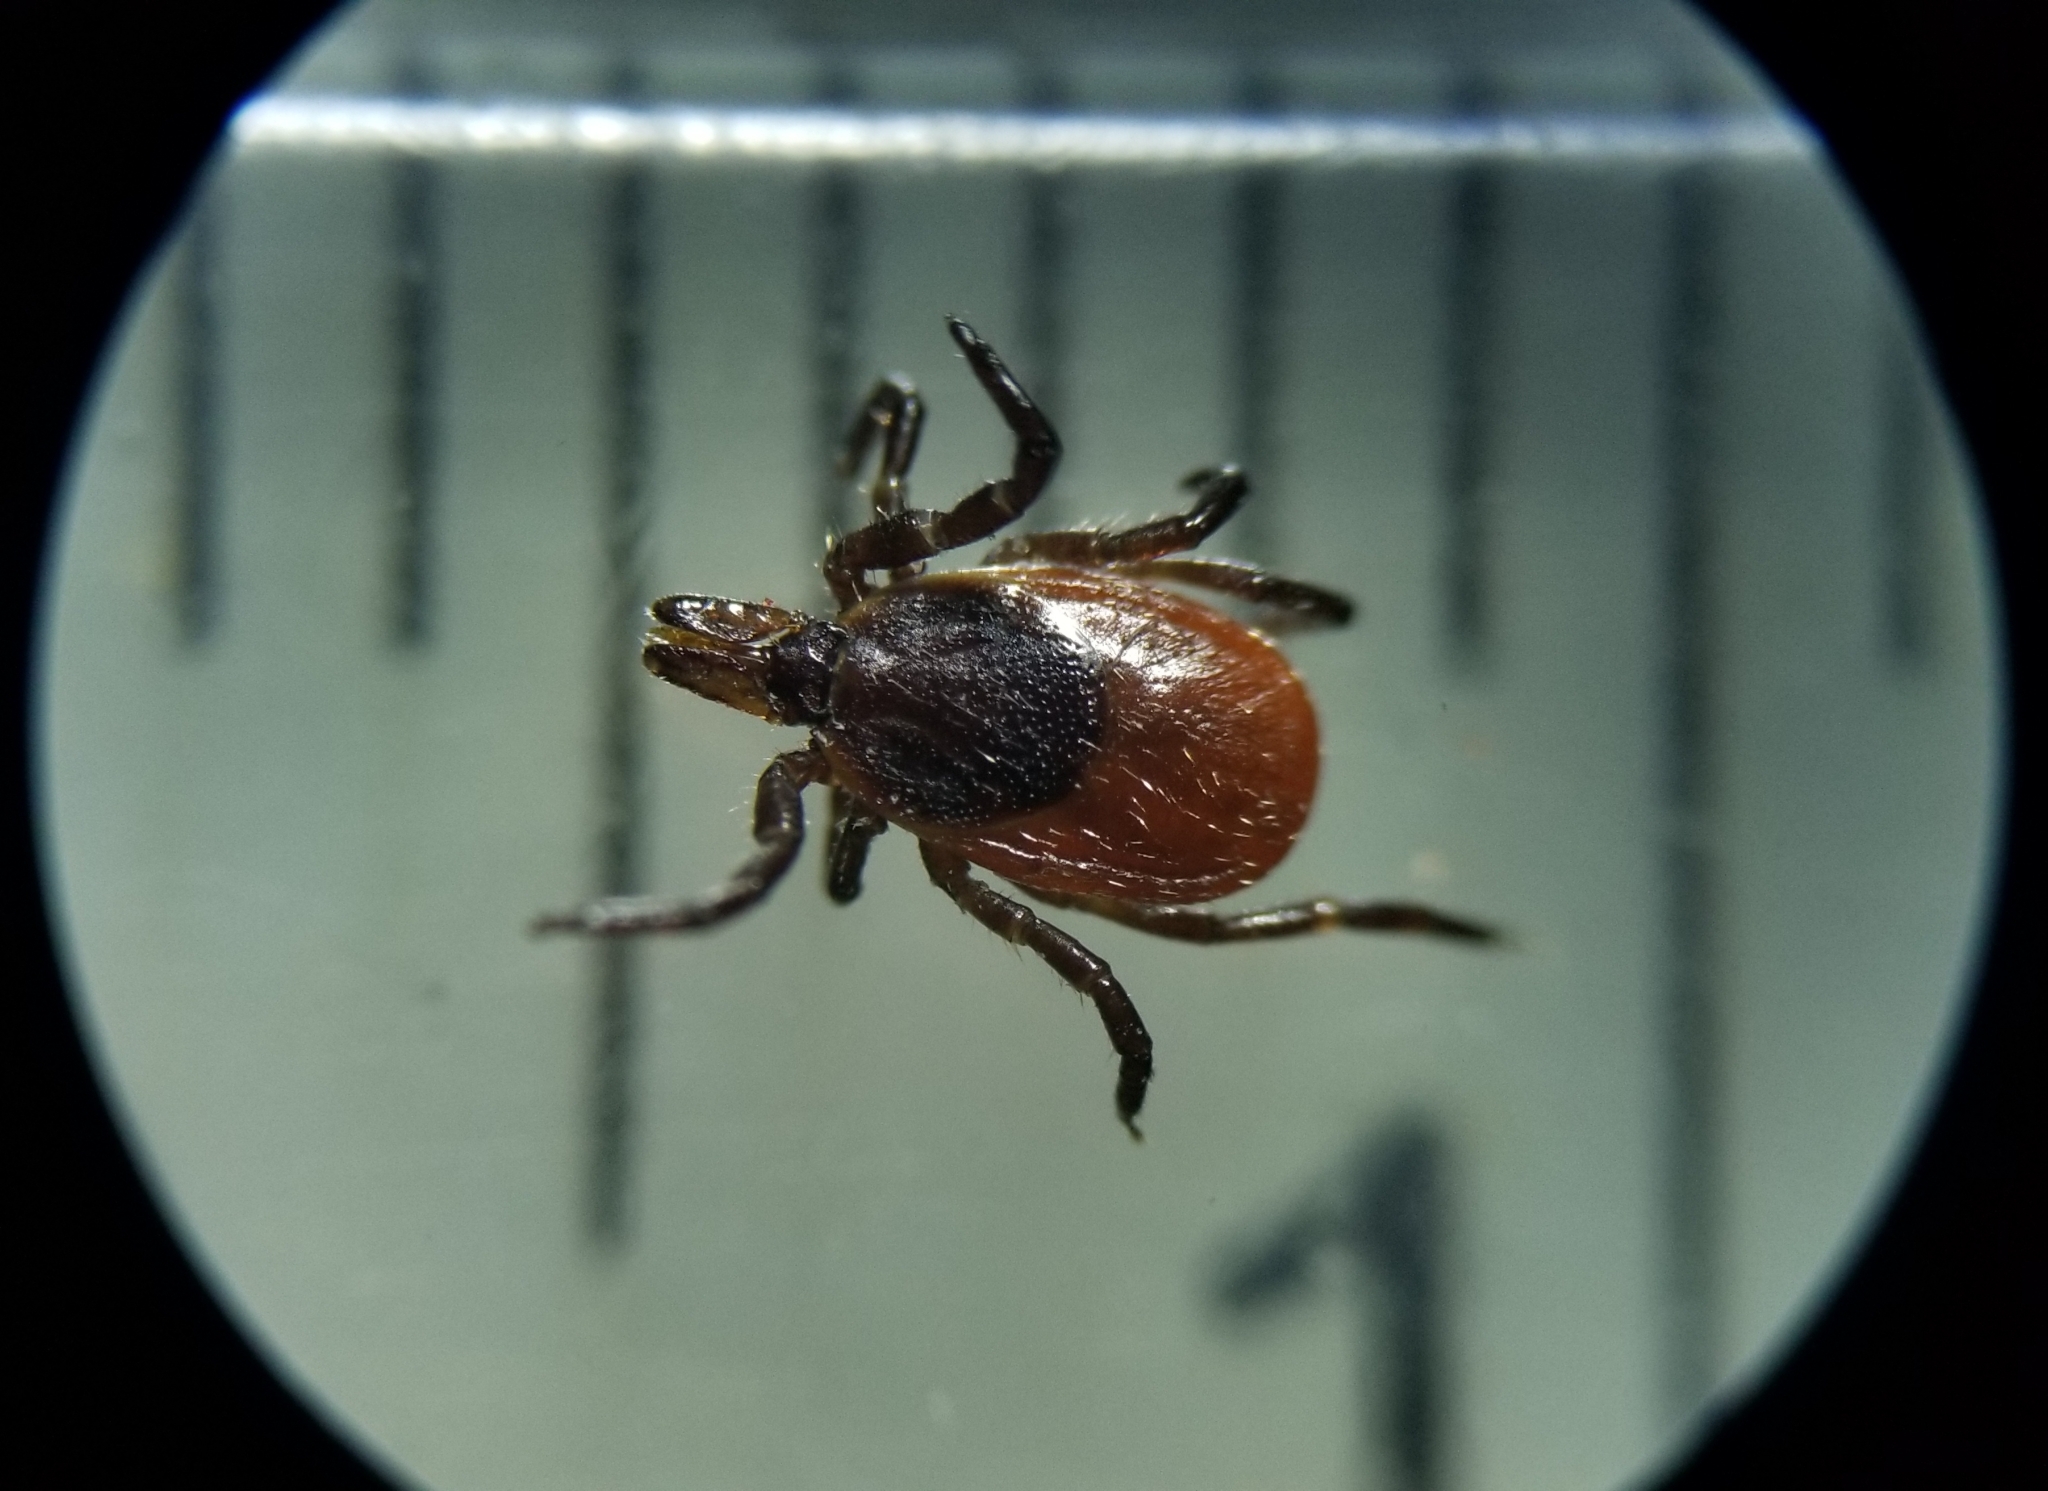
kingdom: Animalia
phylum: Arthropoda
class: Arachnida
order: Ixodida
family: Ixodidae
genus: Ixodes
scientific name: Ixodes scapularis
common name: Black legged tick
